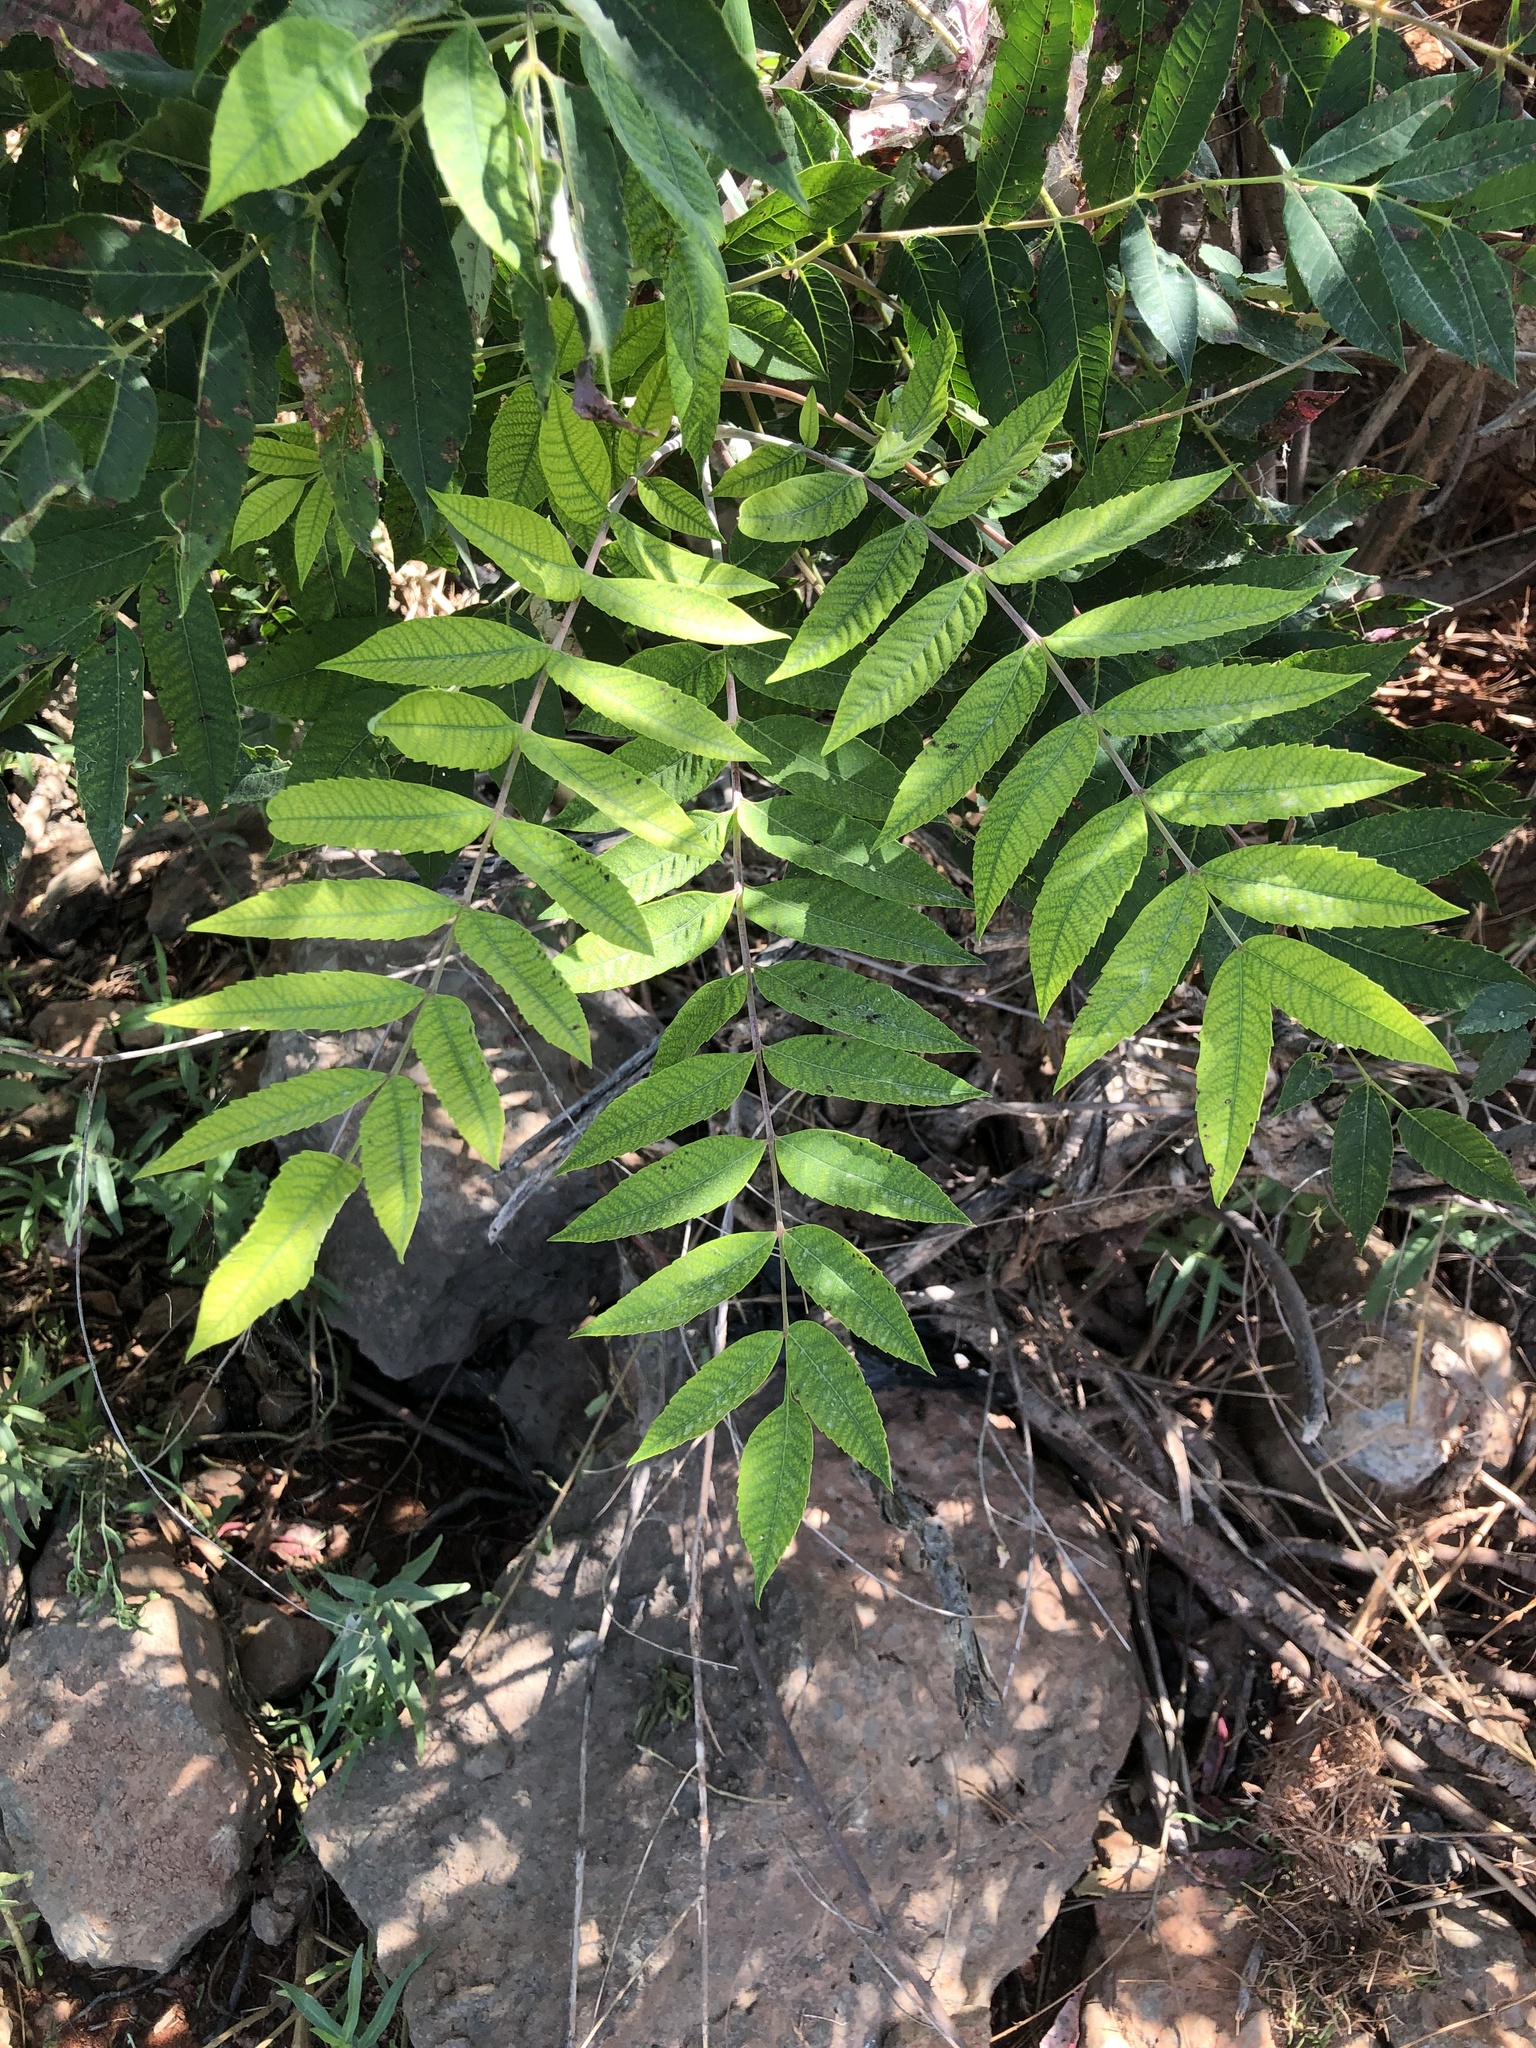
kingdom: Plantae
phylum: Tracheophyta
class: Magnoliopsida
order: Sapindales
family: Anacardiaceae
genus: Rhus
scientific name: Rhus glabra
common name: Scarlet sumac
